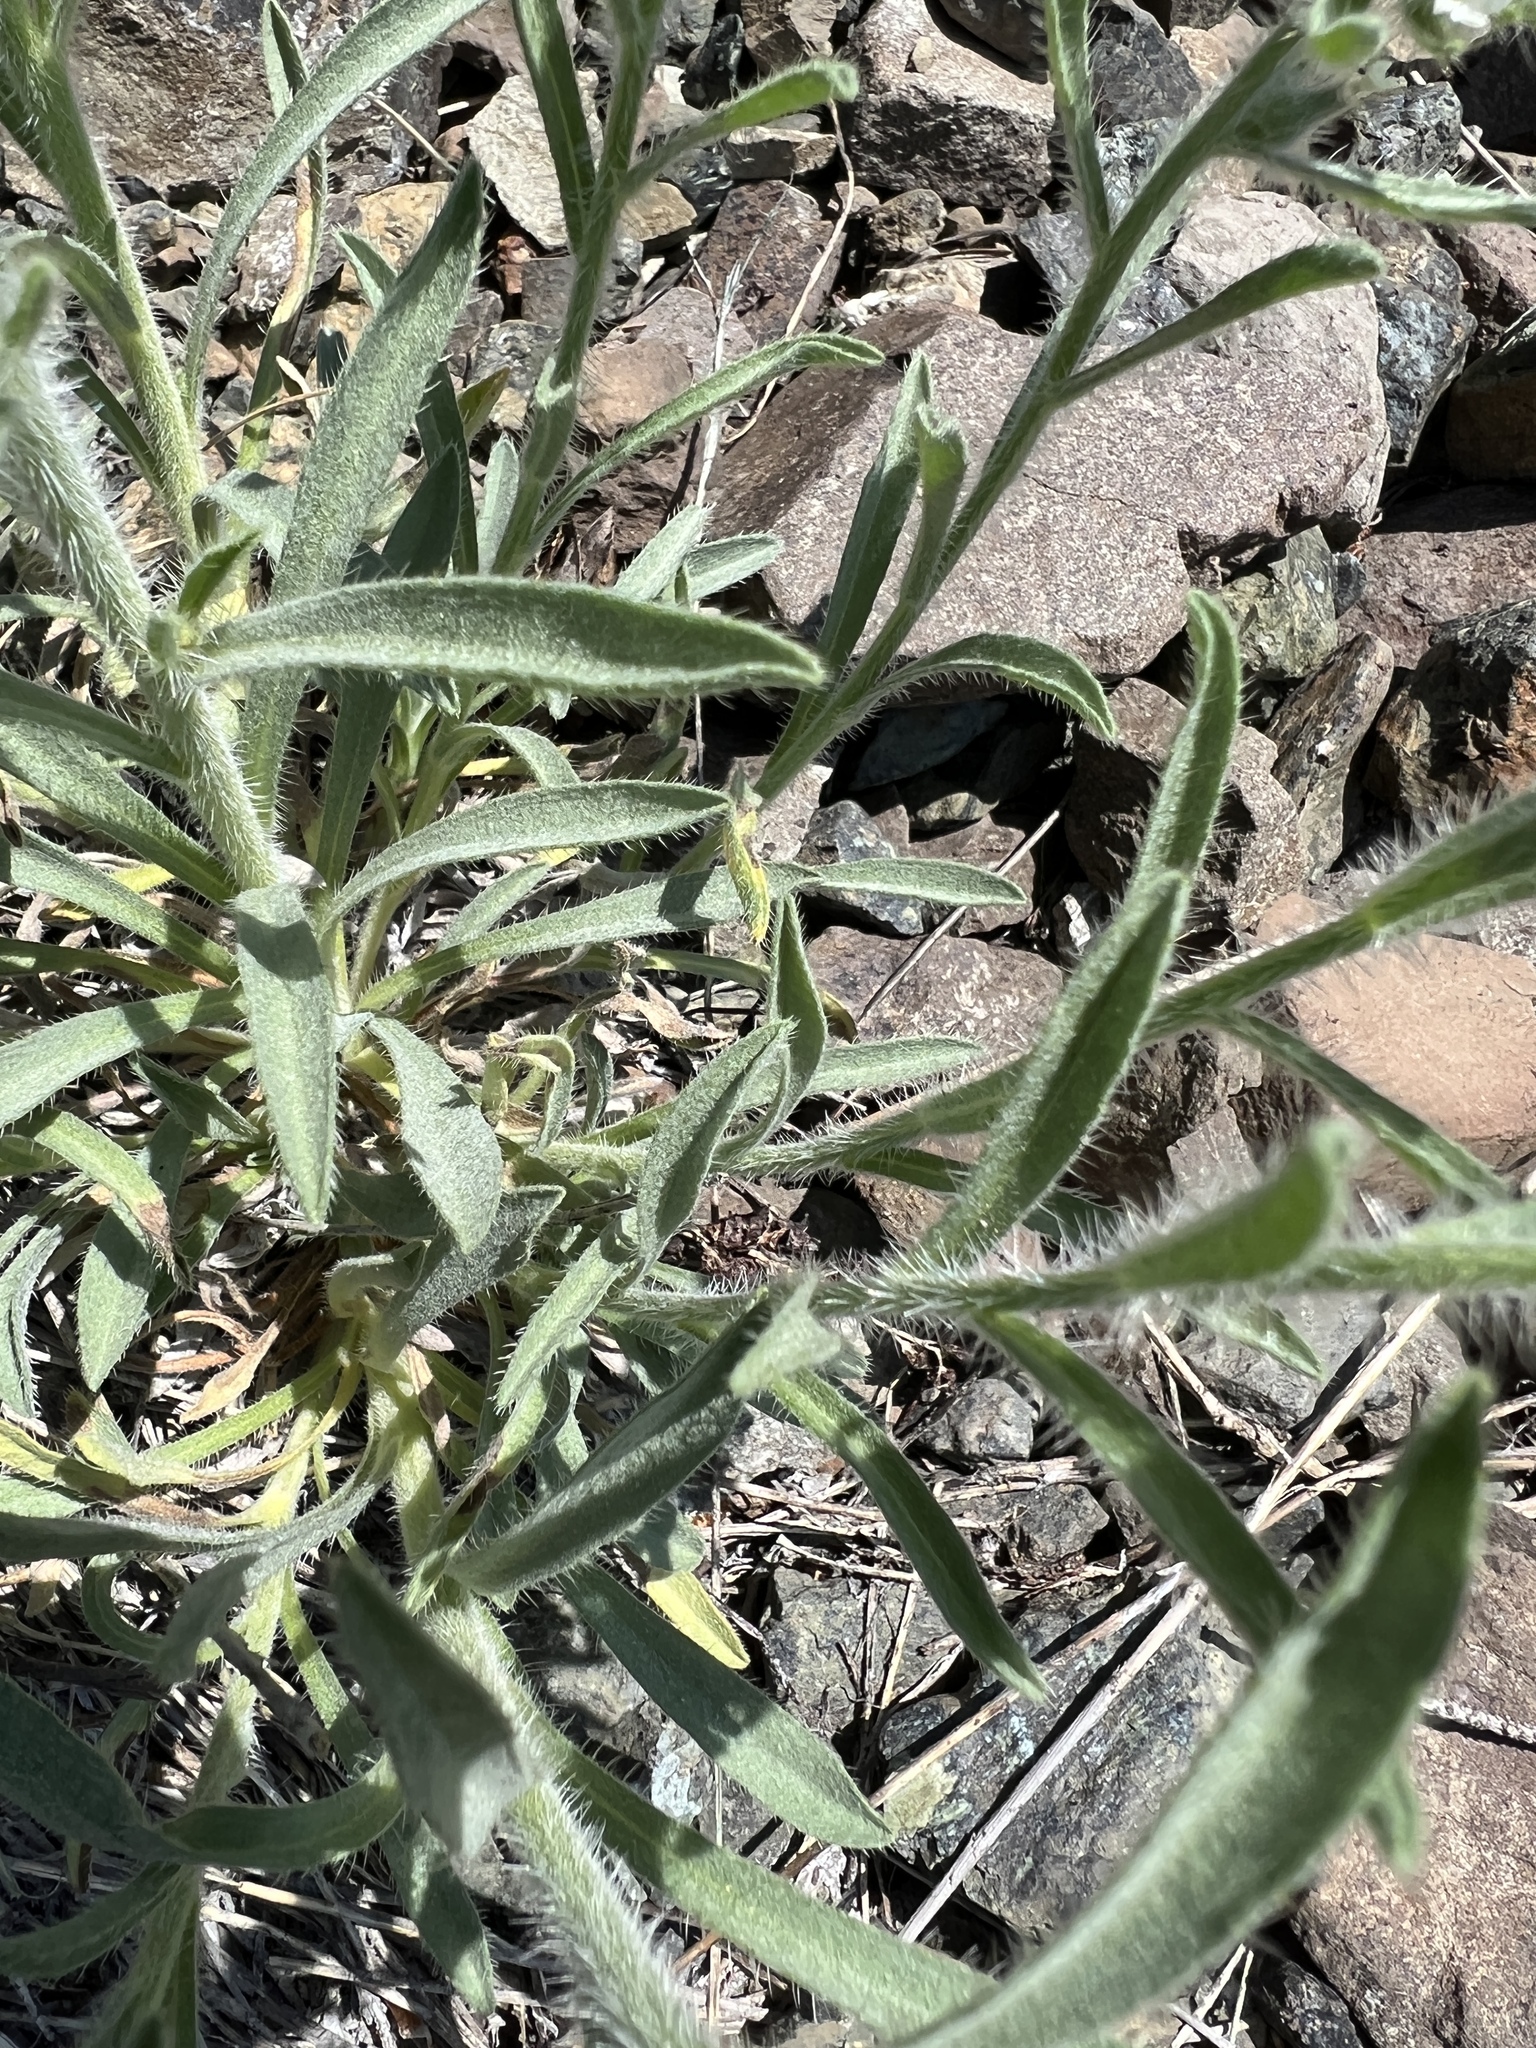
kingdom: Plantae
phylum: Tracheophyta
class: Magnoliopsida
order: Boraginales
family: Boraginaceae
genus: Oreocarya
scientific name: Oreocarya thompsonii
